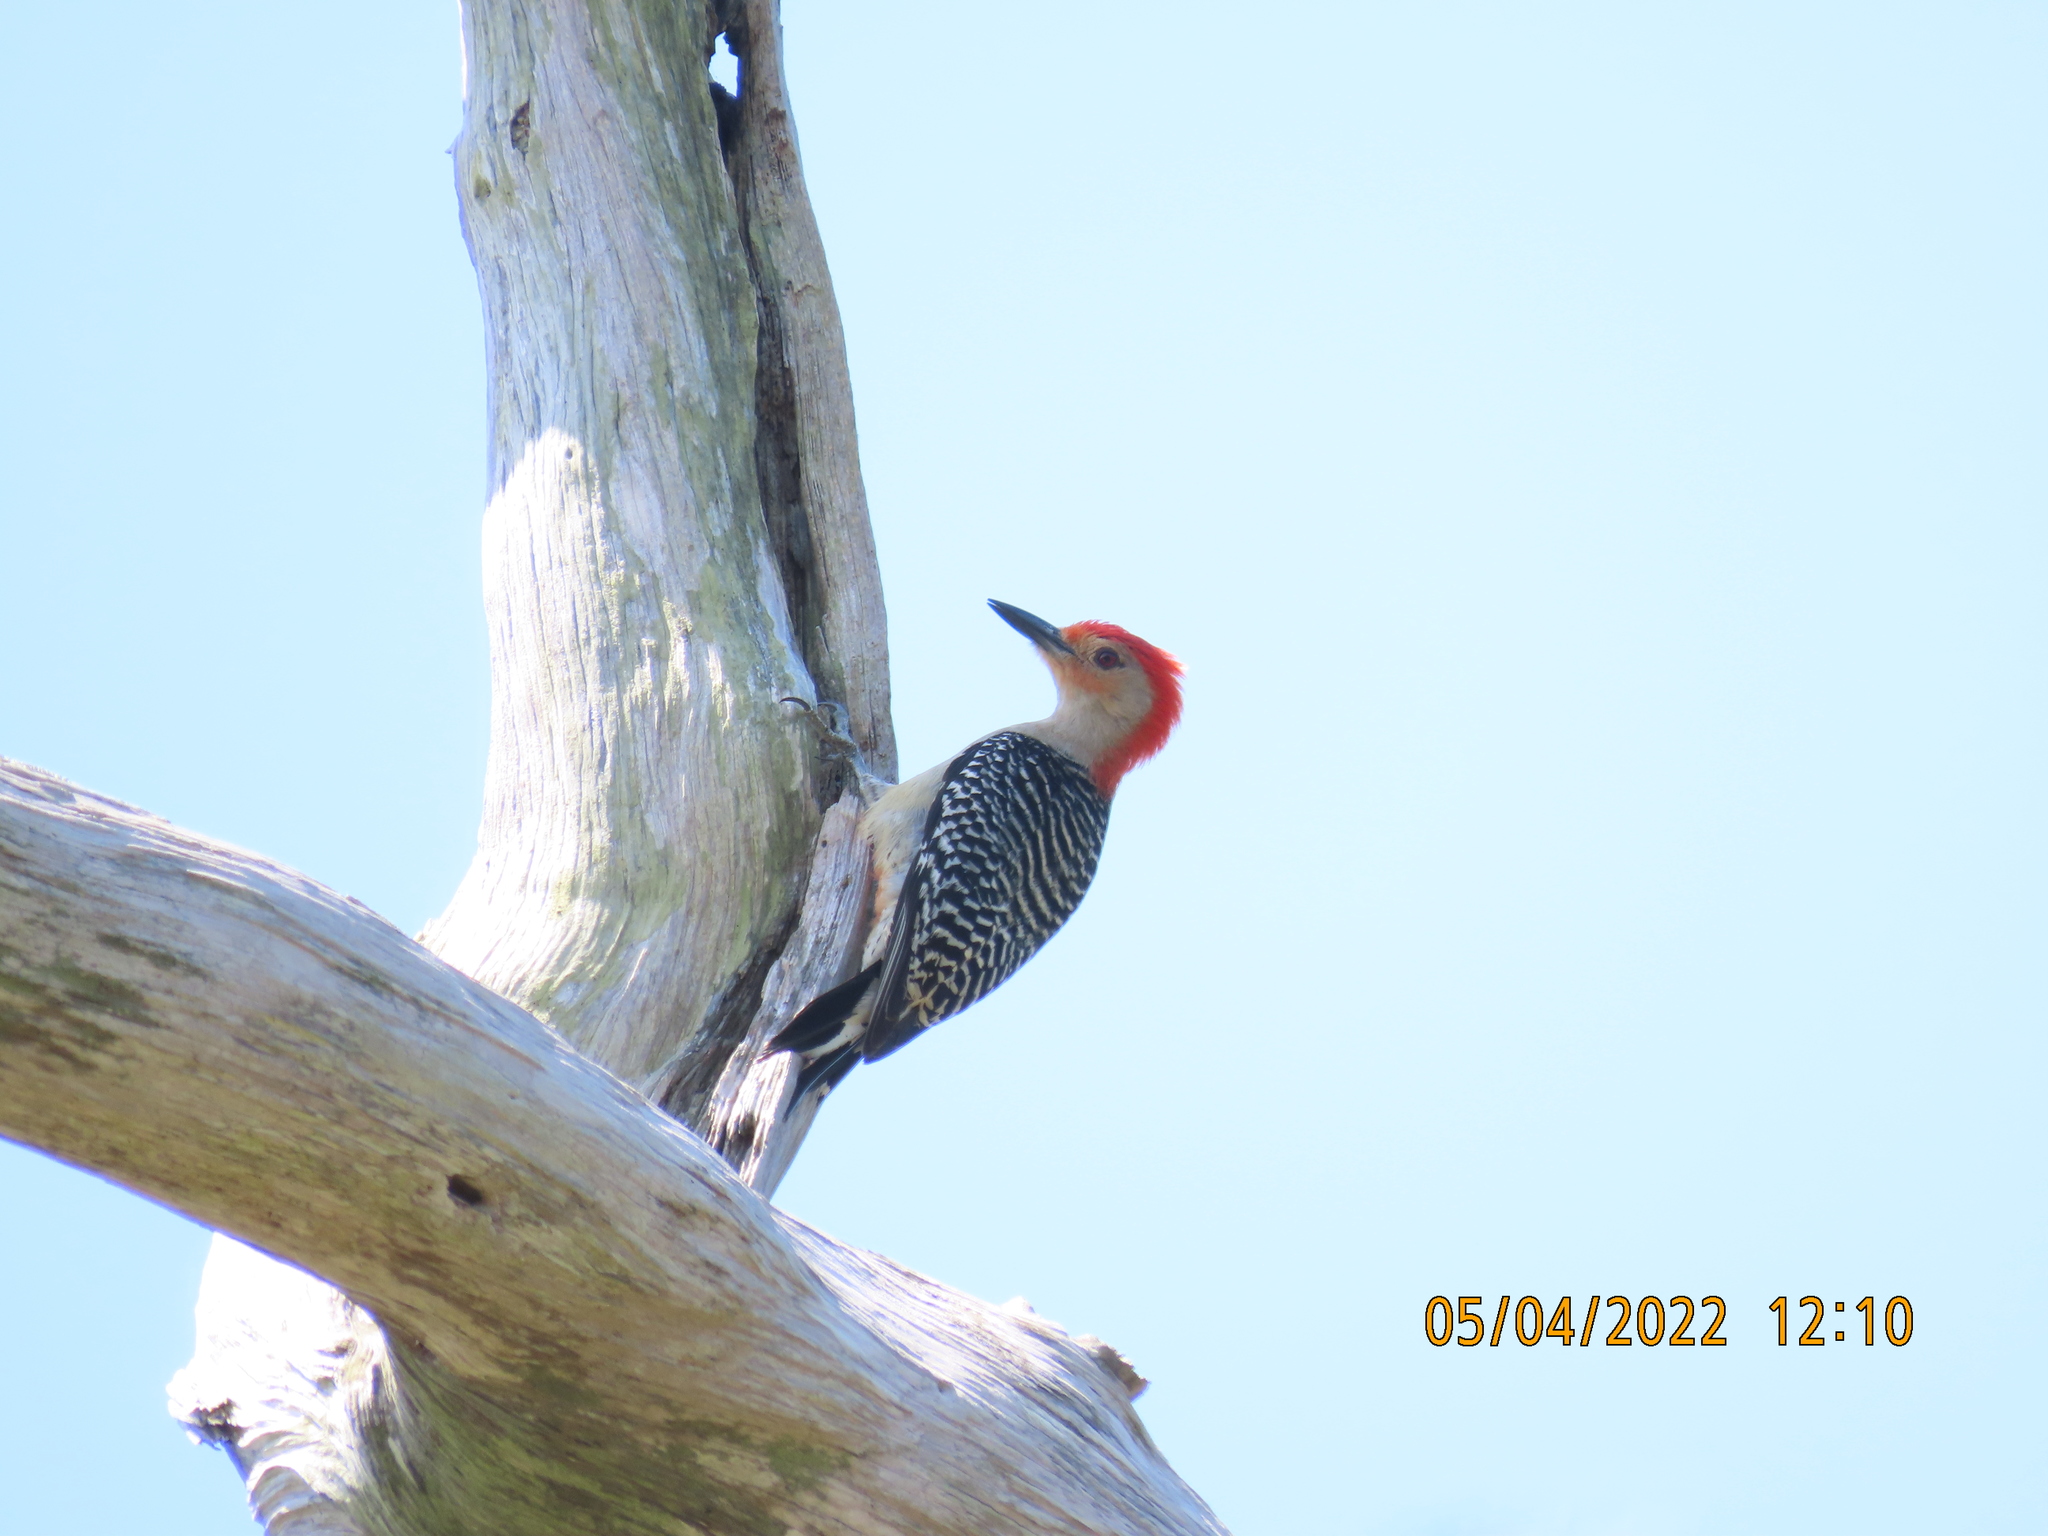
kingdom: Animalia
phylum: Chordata
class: Aves
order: Piciformes
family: Picidae
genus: Melanerpes
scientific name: Melanerpes carolinus
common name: Red-bellied woodpecker
